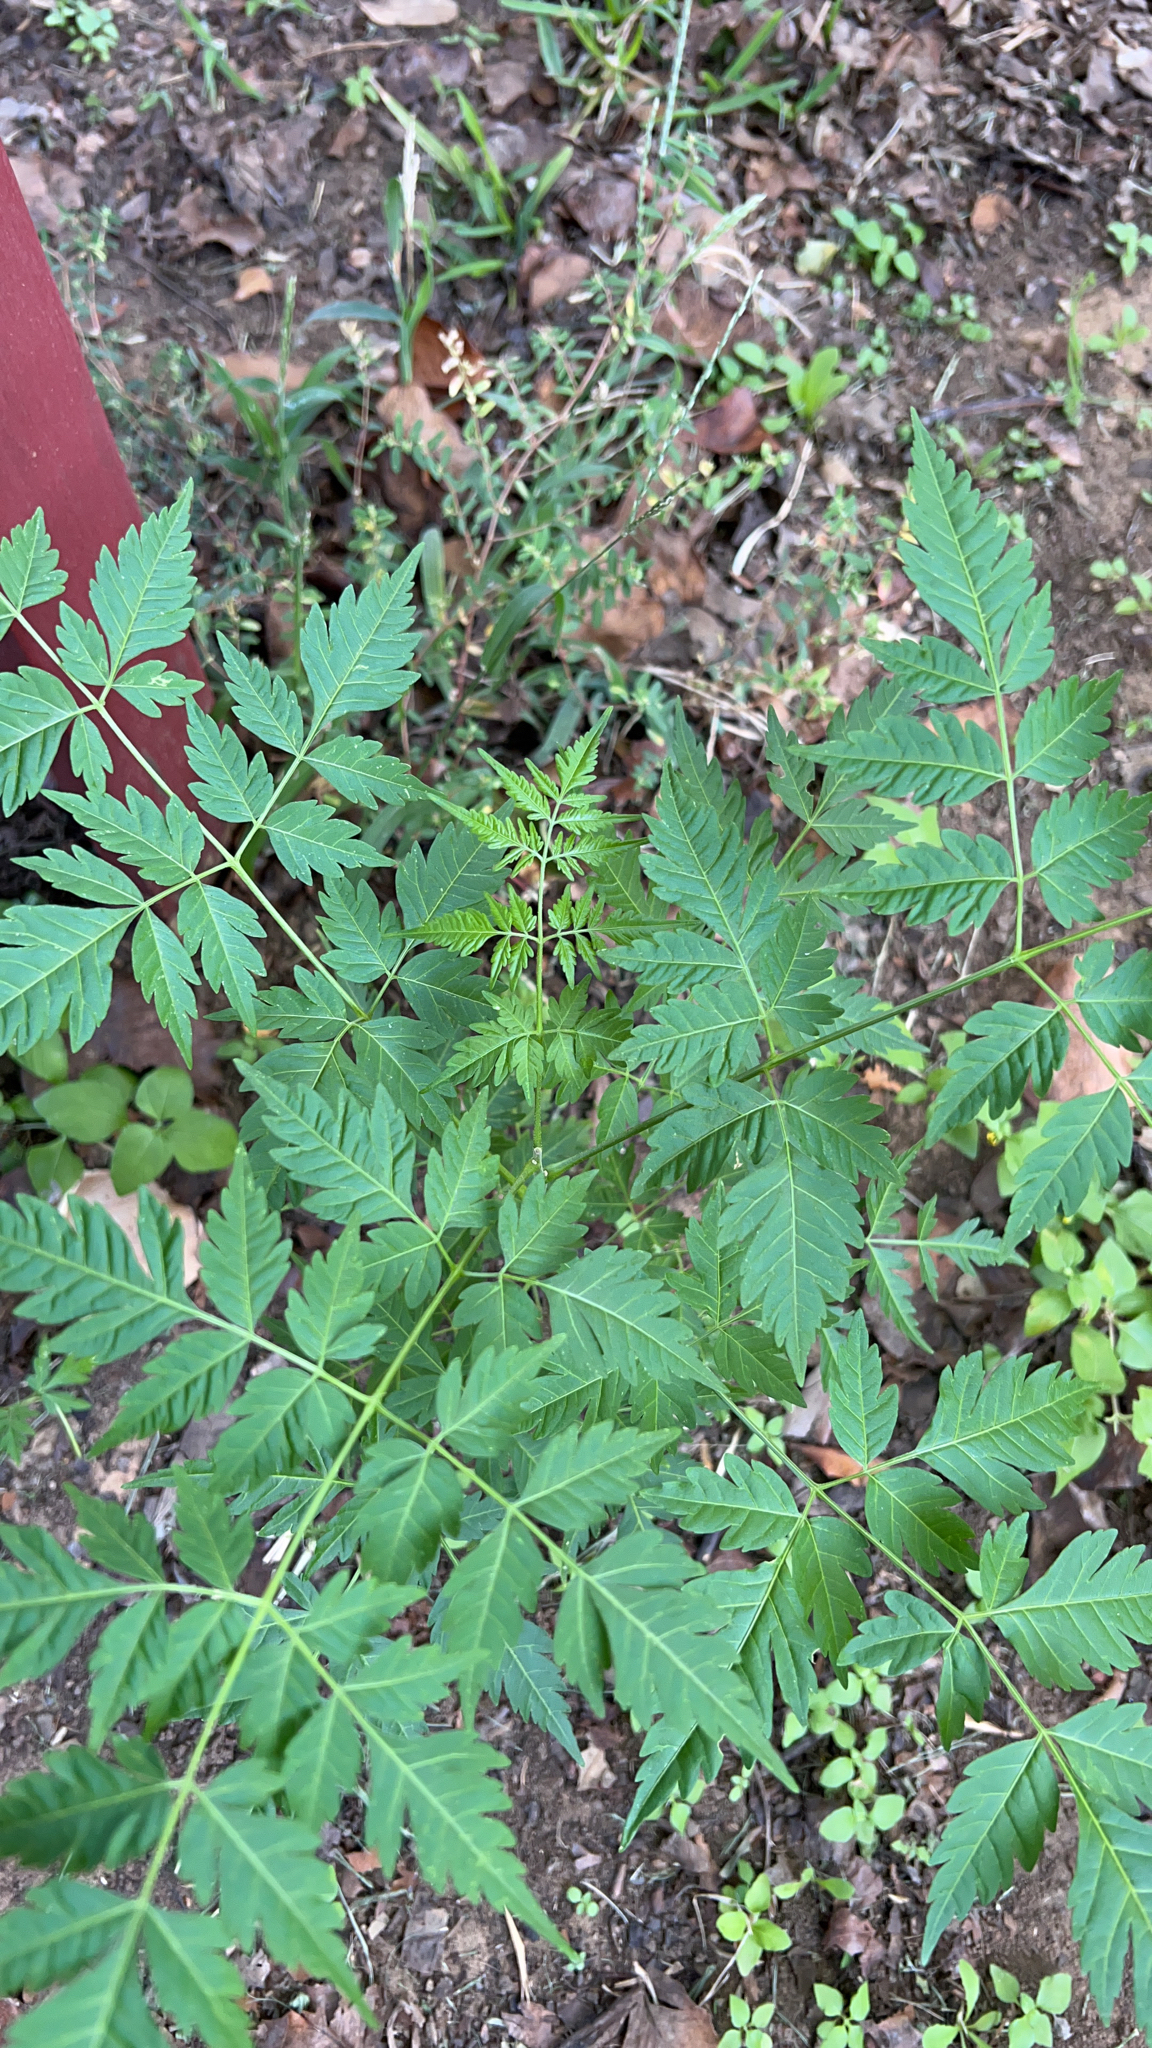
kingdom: Plantae
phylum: Tracheophyta
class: Magnoliopsida
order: Sapindales
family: Meliaceae
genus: Melia
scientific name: Melia azedarach
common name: Chinaberrytree
